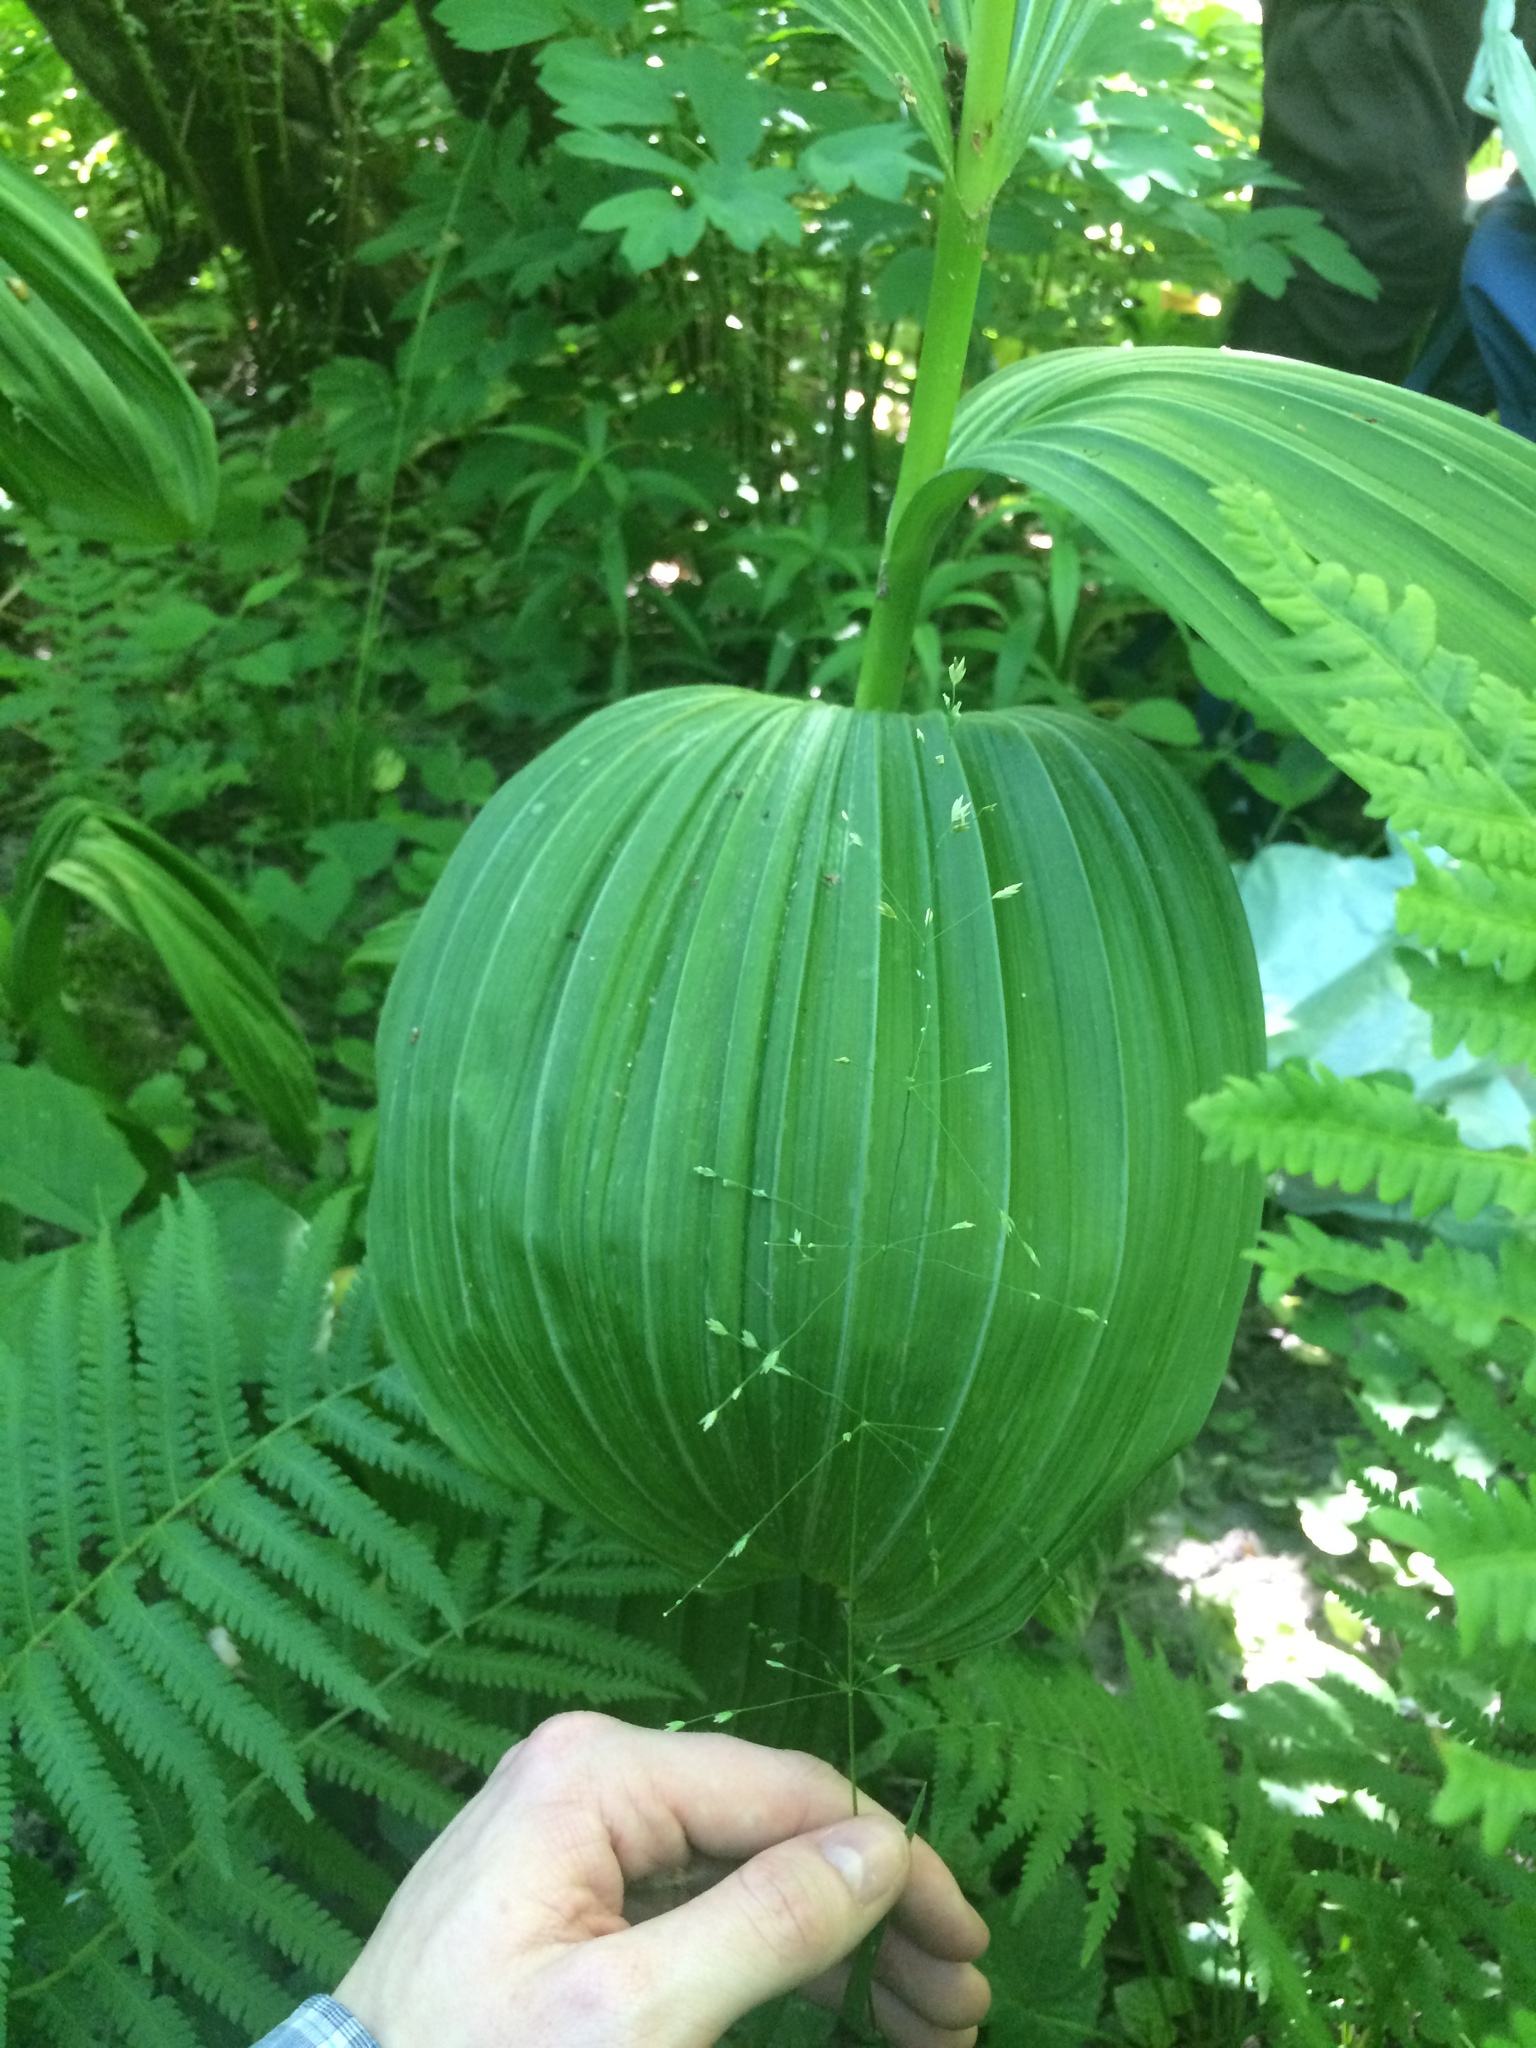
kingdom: Plantae
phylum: Tracheophyta
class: Liliopsida
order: Liliales
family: Melanthiaceae
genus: Veratrum
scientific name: Veratrum viride
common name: American false hellebore
